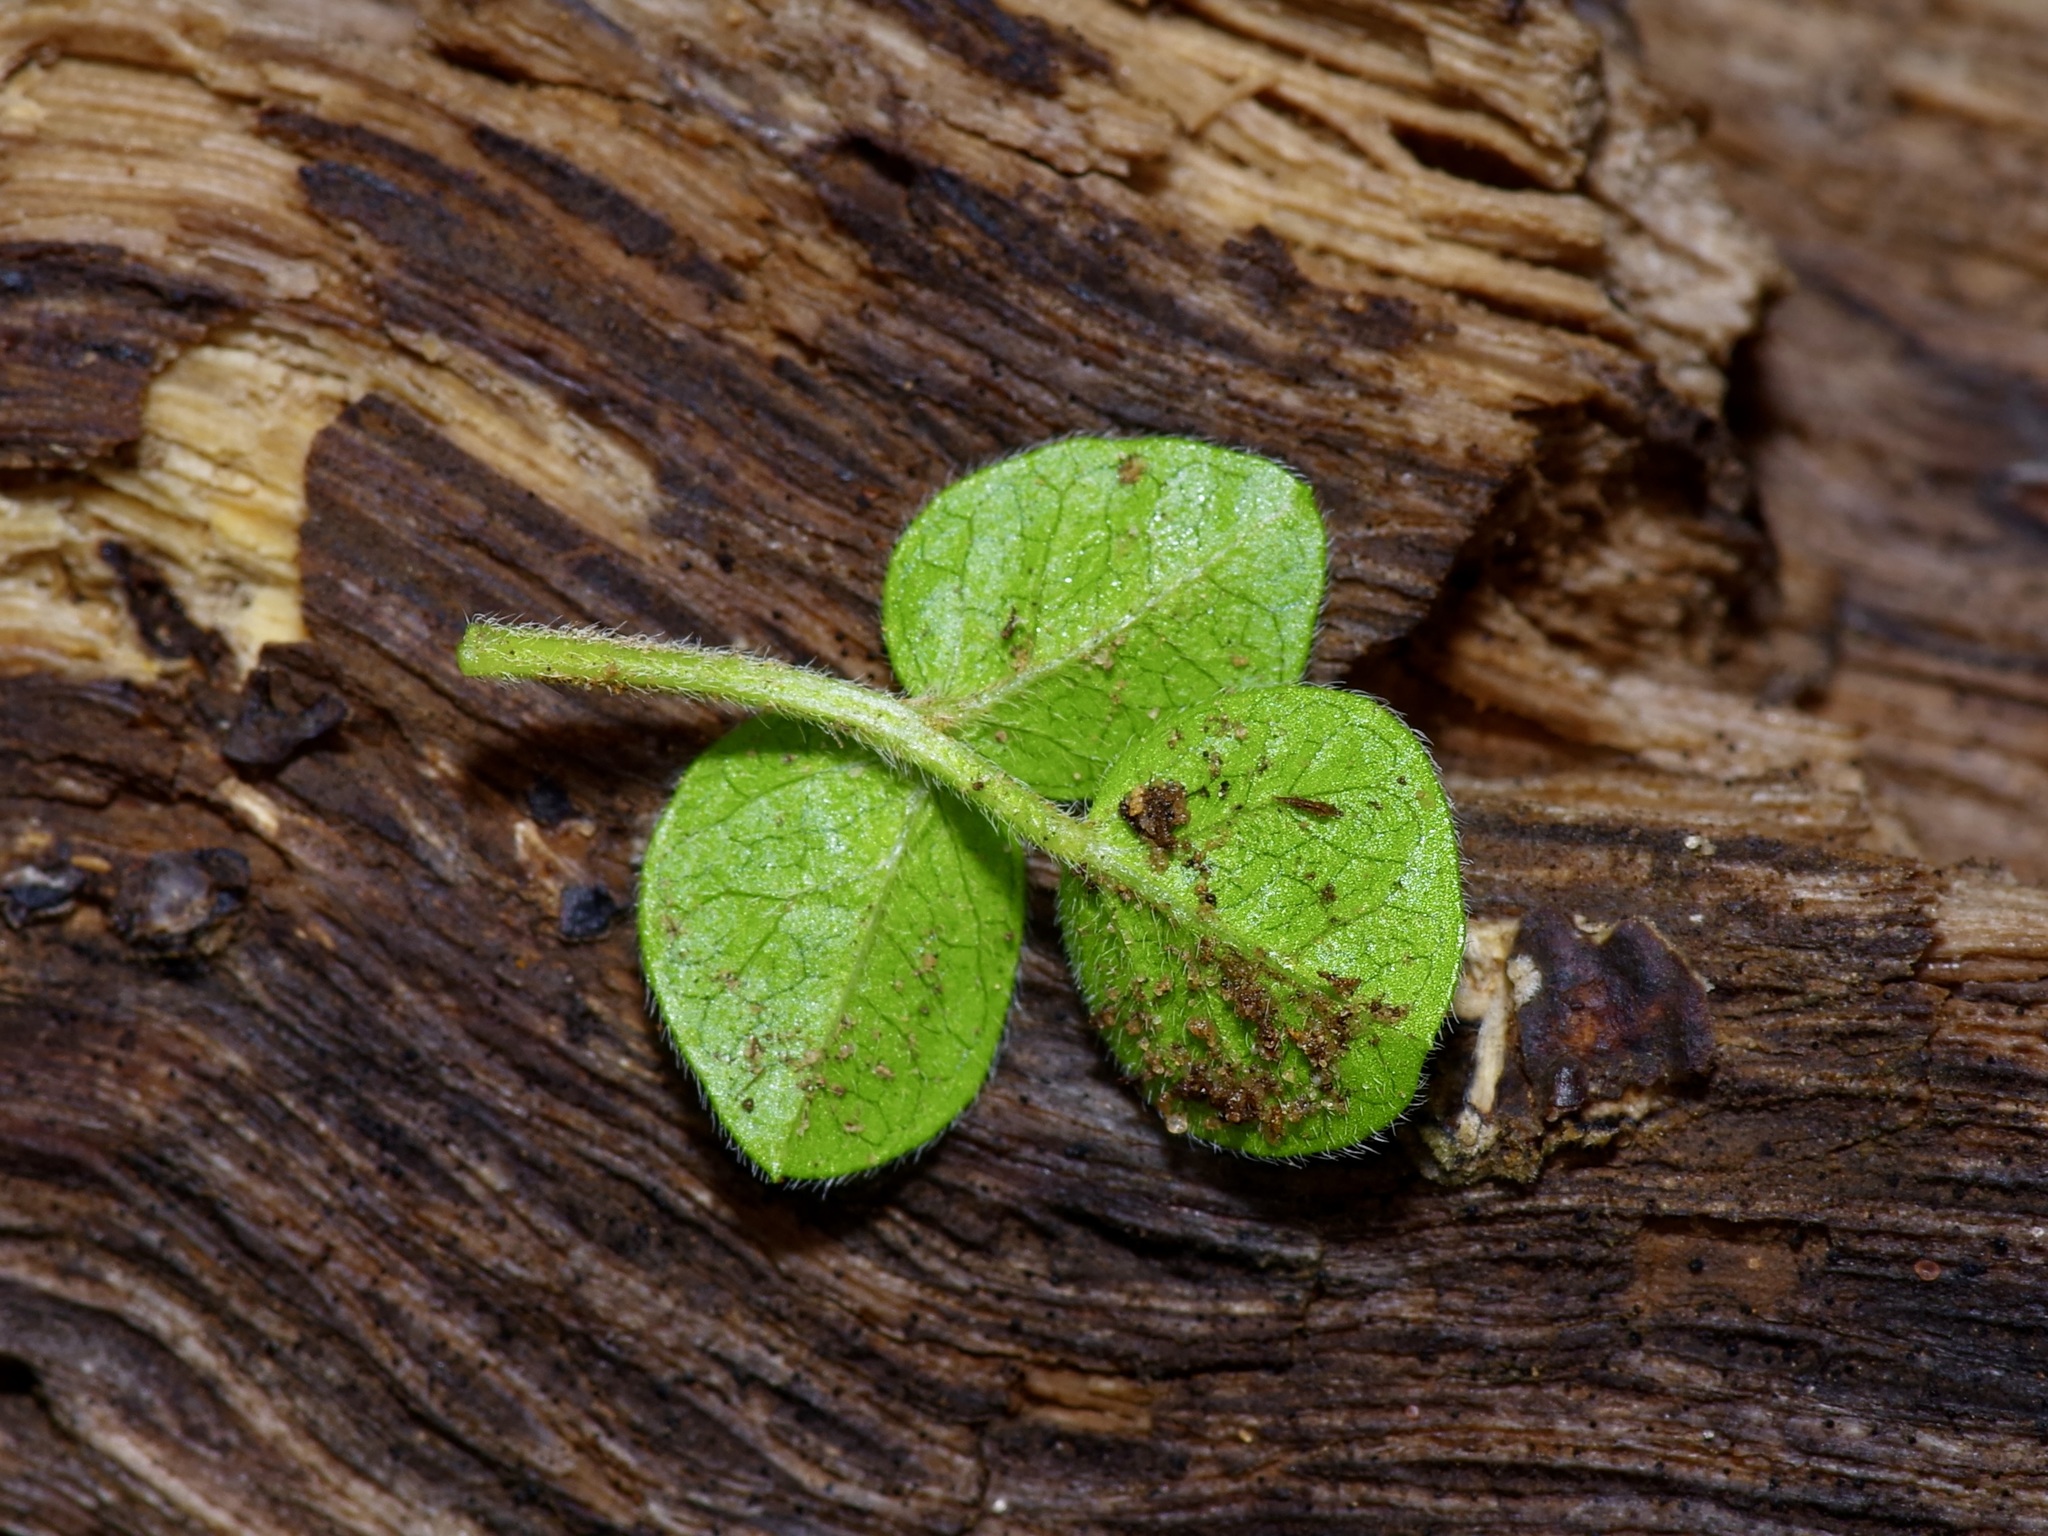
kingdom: Plantae
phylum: Tracheophyta
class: Magnoliopsida
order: Fabales
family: Fabaceae
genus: Pediomelum
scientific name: Pediomelum rhombifolium
